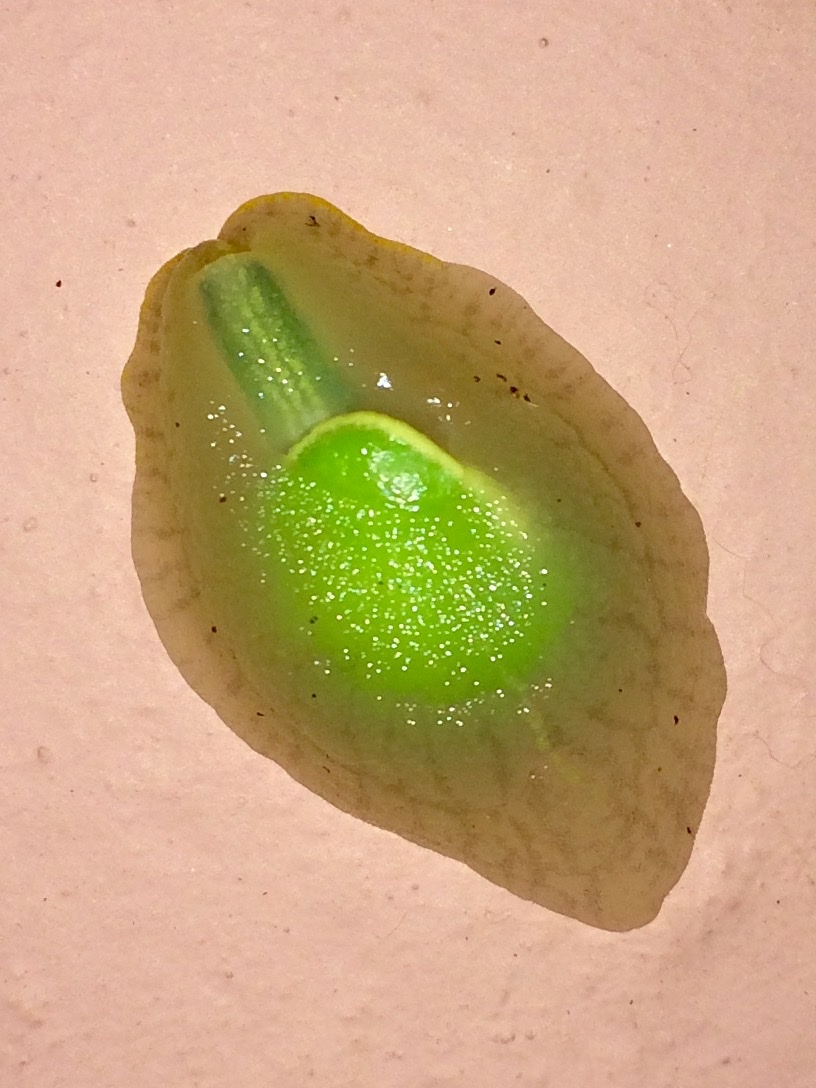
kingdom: Animalia
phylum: Mollusca
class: Gastropoda
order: Stylommatophora
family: Amphibulimidae
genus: Gaeotis
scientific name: Gaeotis nigrolineata
